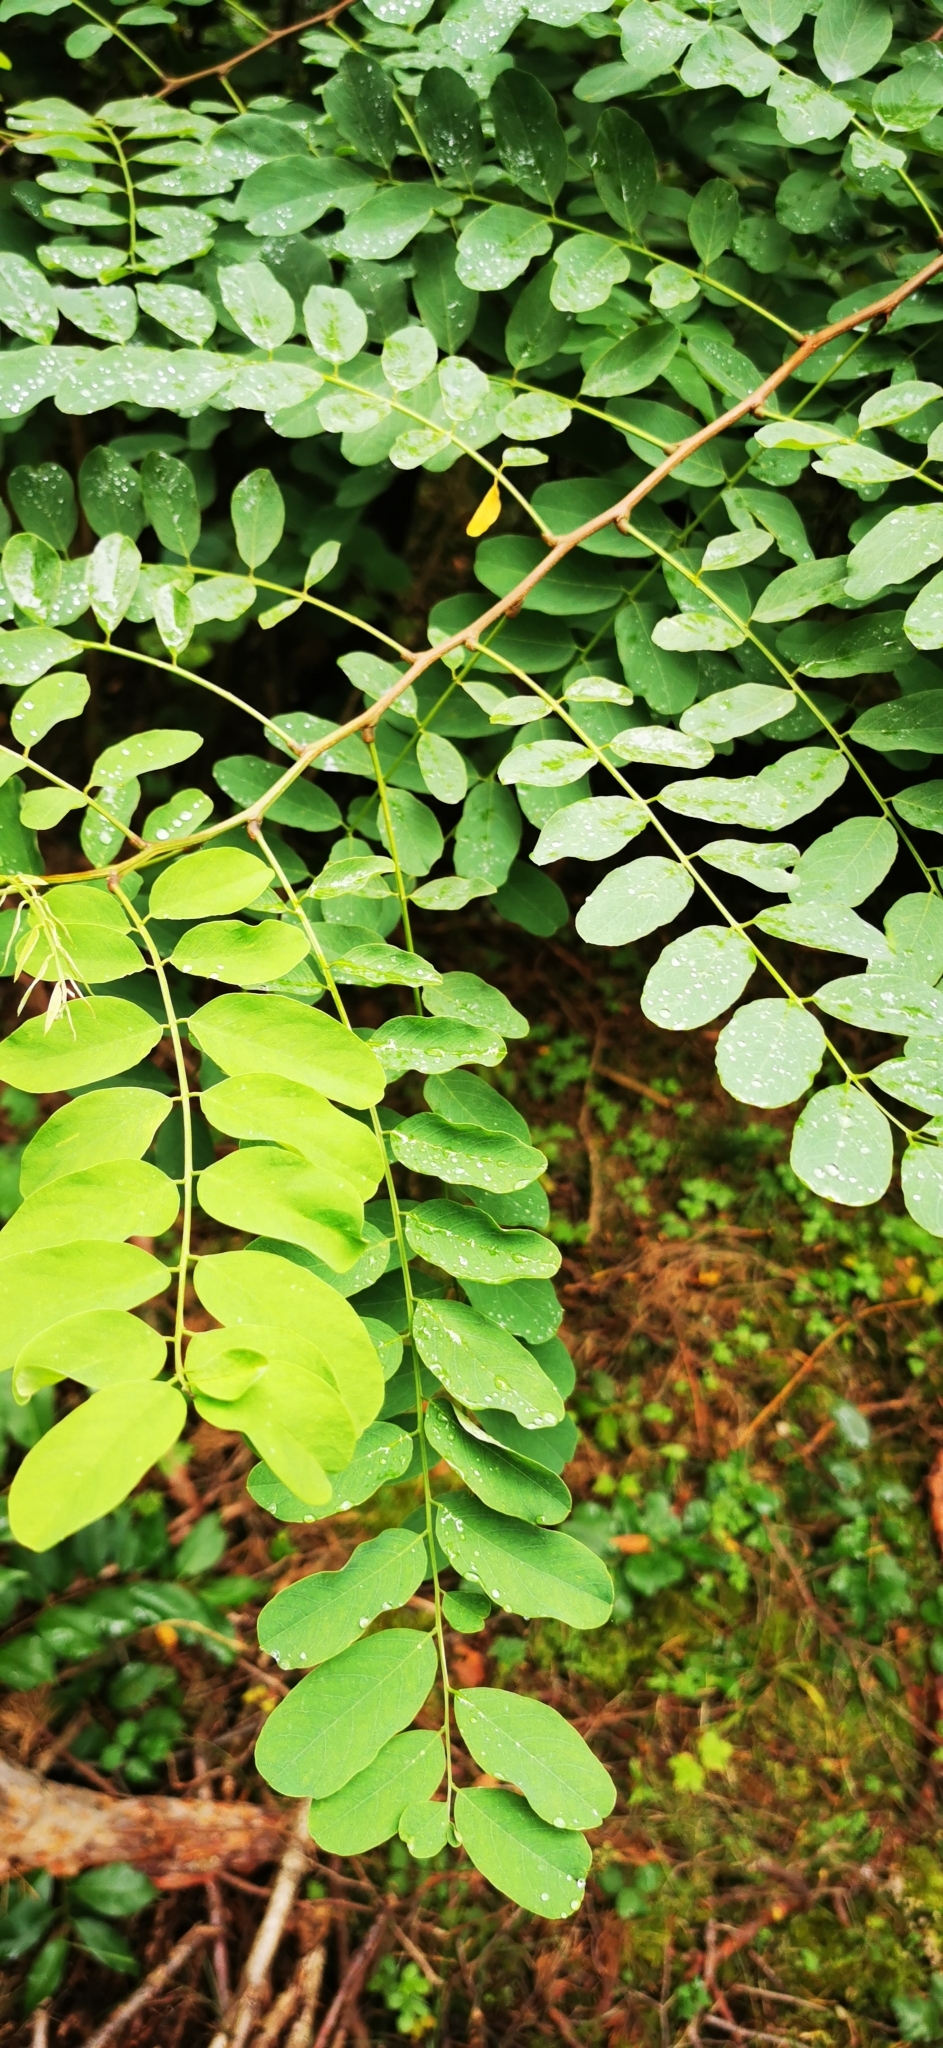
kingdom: Plantae
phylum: Tracheophyta
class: Magnoliopsida
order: Fabales
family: Fabaceae
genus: Robinia
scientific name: Robinia pseudoacacia
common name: Black locust
